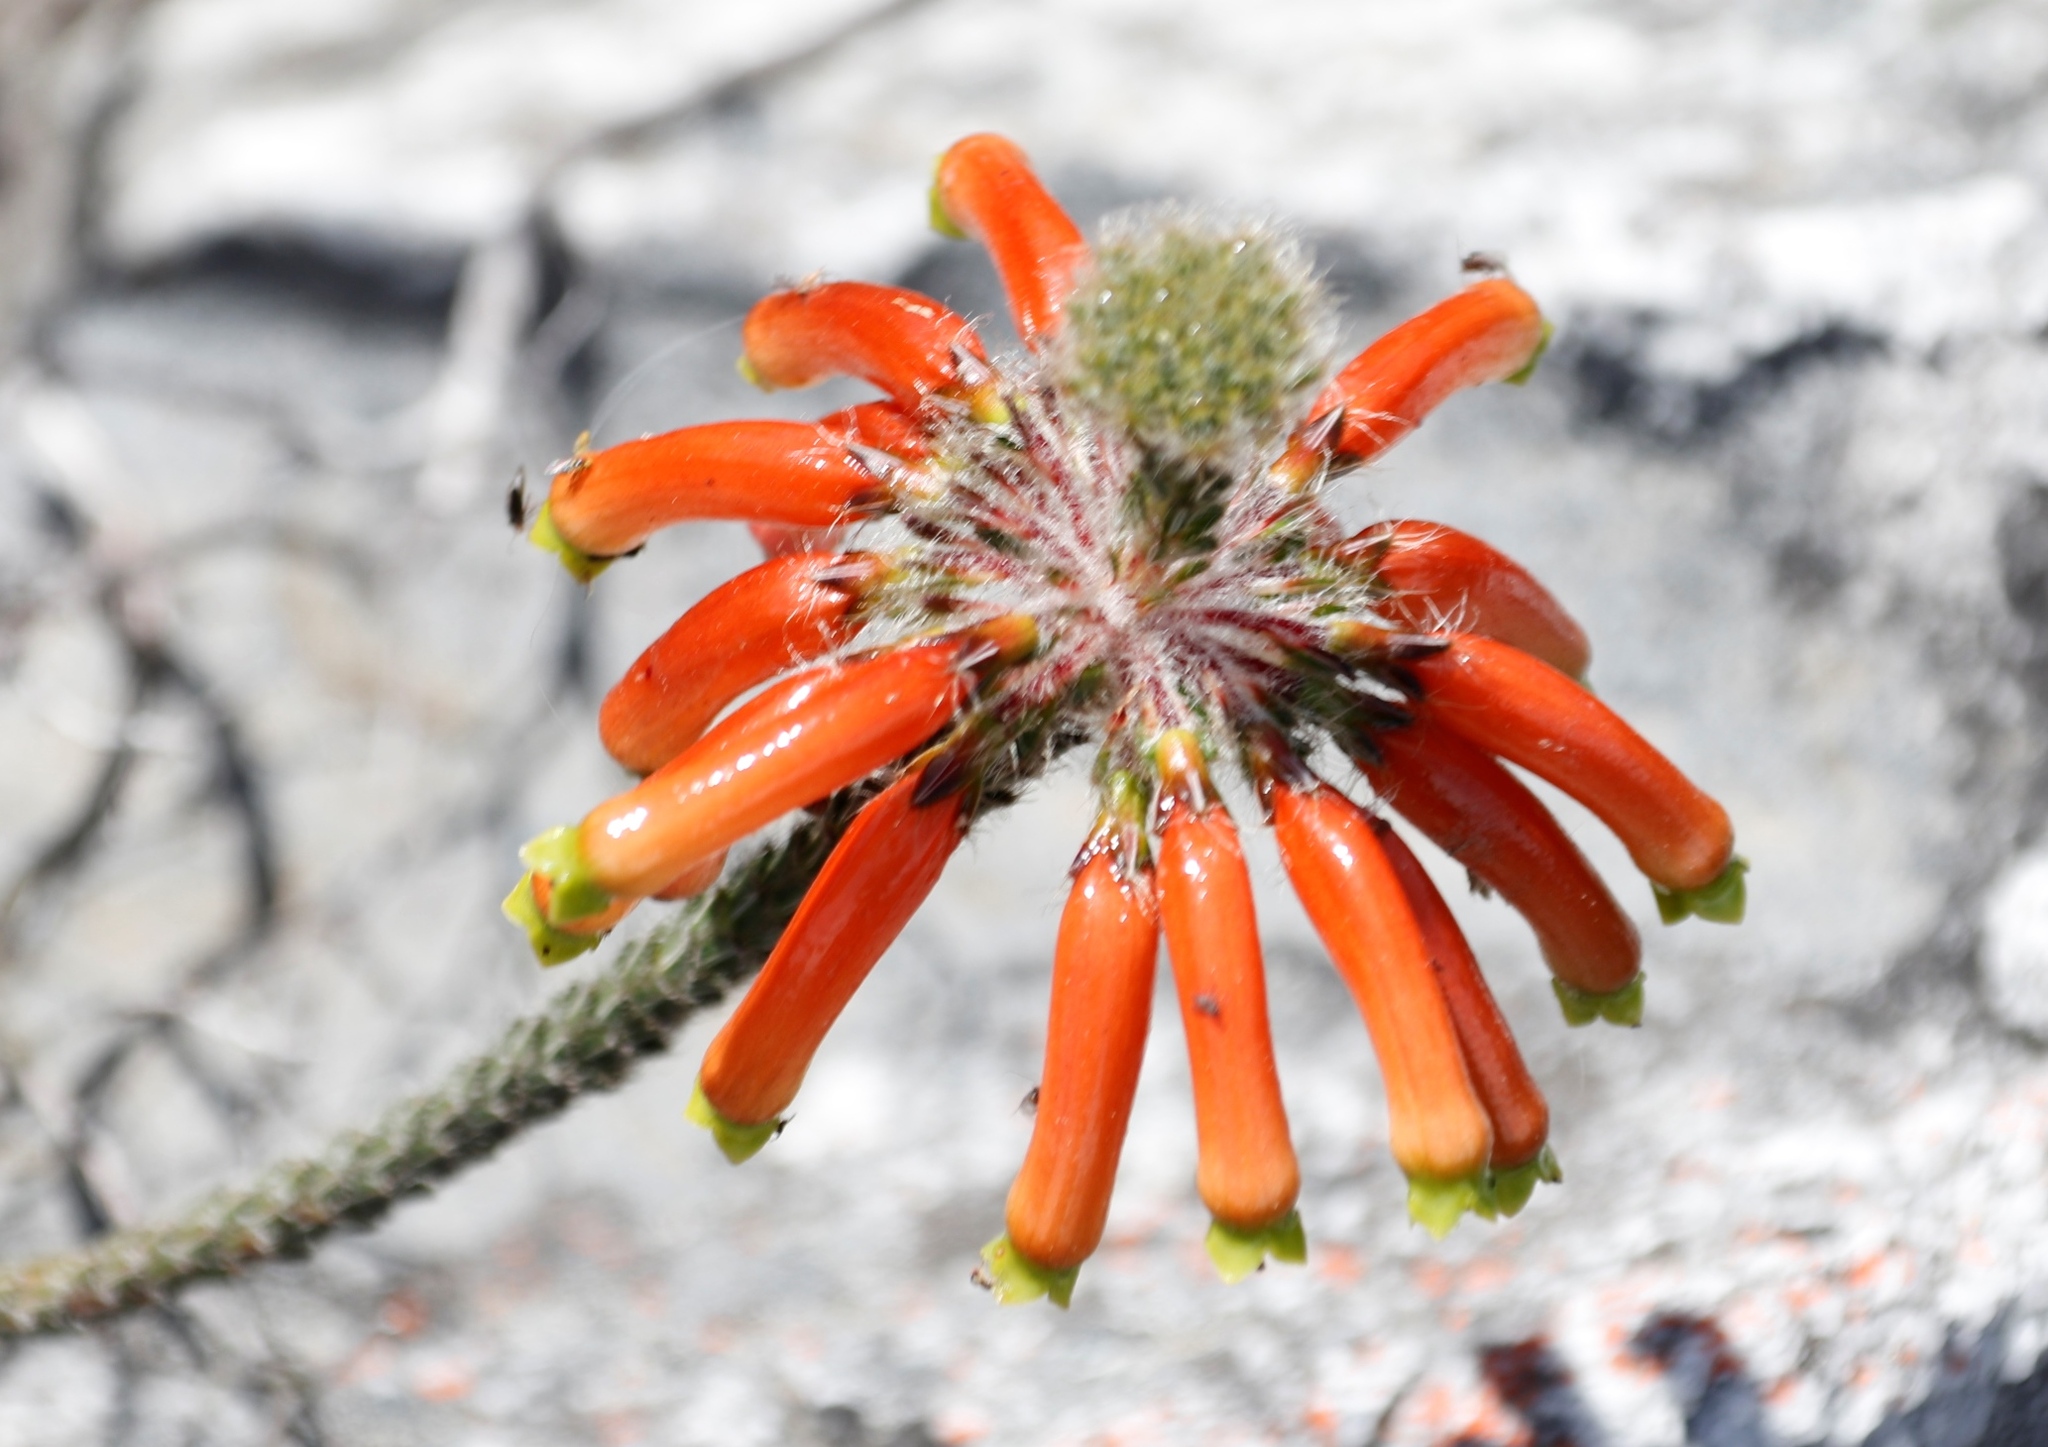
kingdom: Plantae
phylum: Tracheophyta
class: Magnoliopsida
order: Ericales
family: Ericaceae
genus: Erica
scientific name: Erica massonii
